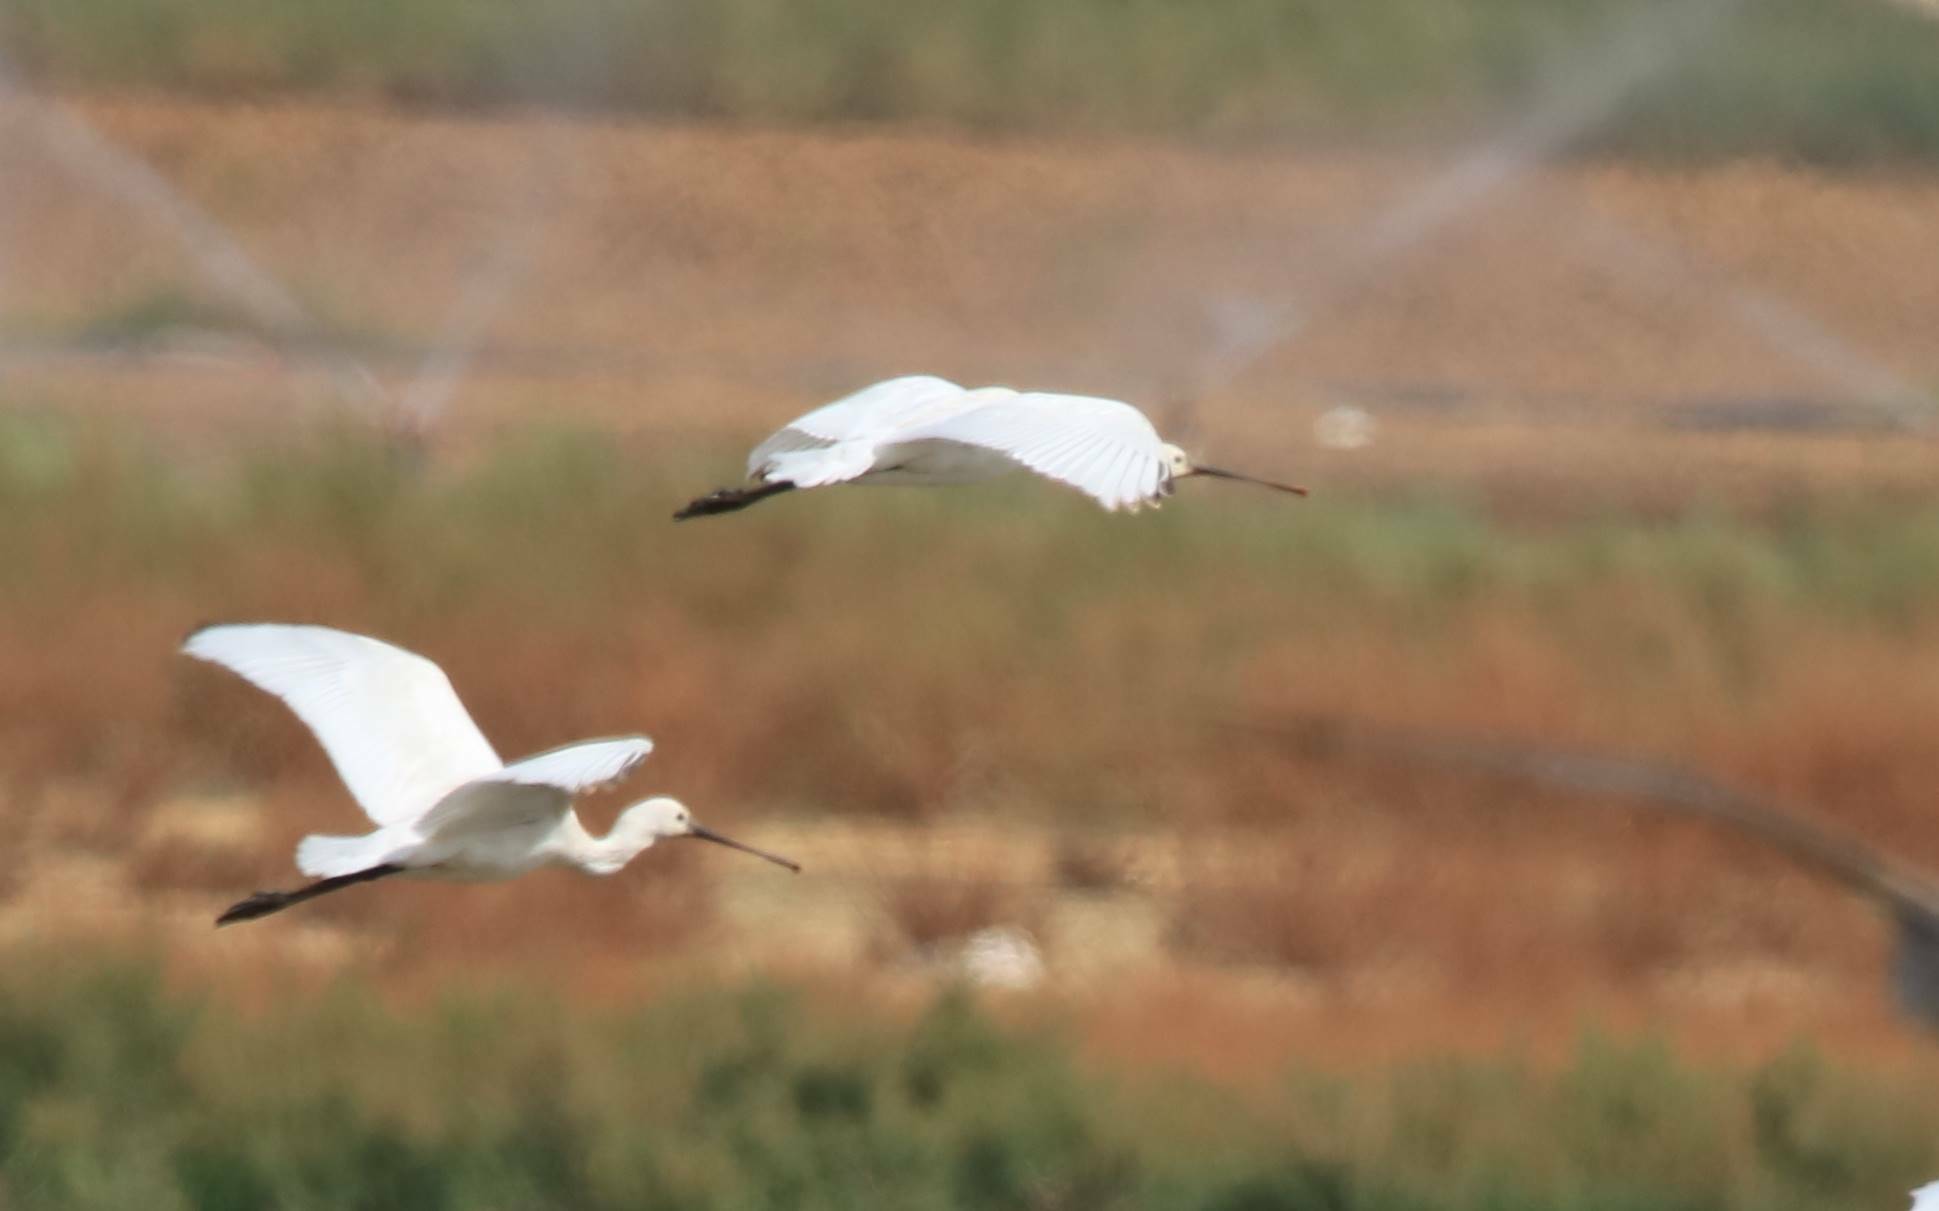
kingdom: Animalia
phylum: Chordata
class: Aves
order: Pelecaniformes
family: Threskiornithidae
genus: Platalea
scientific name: Platalea leucorodia
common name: Eurasian spoonbill
